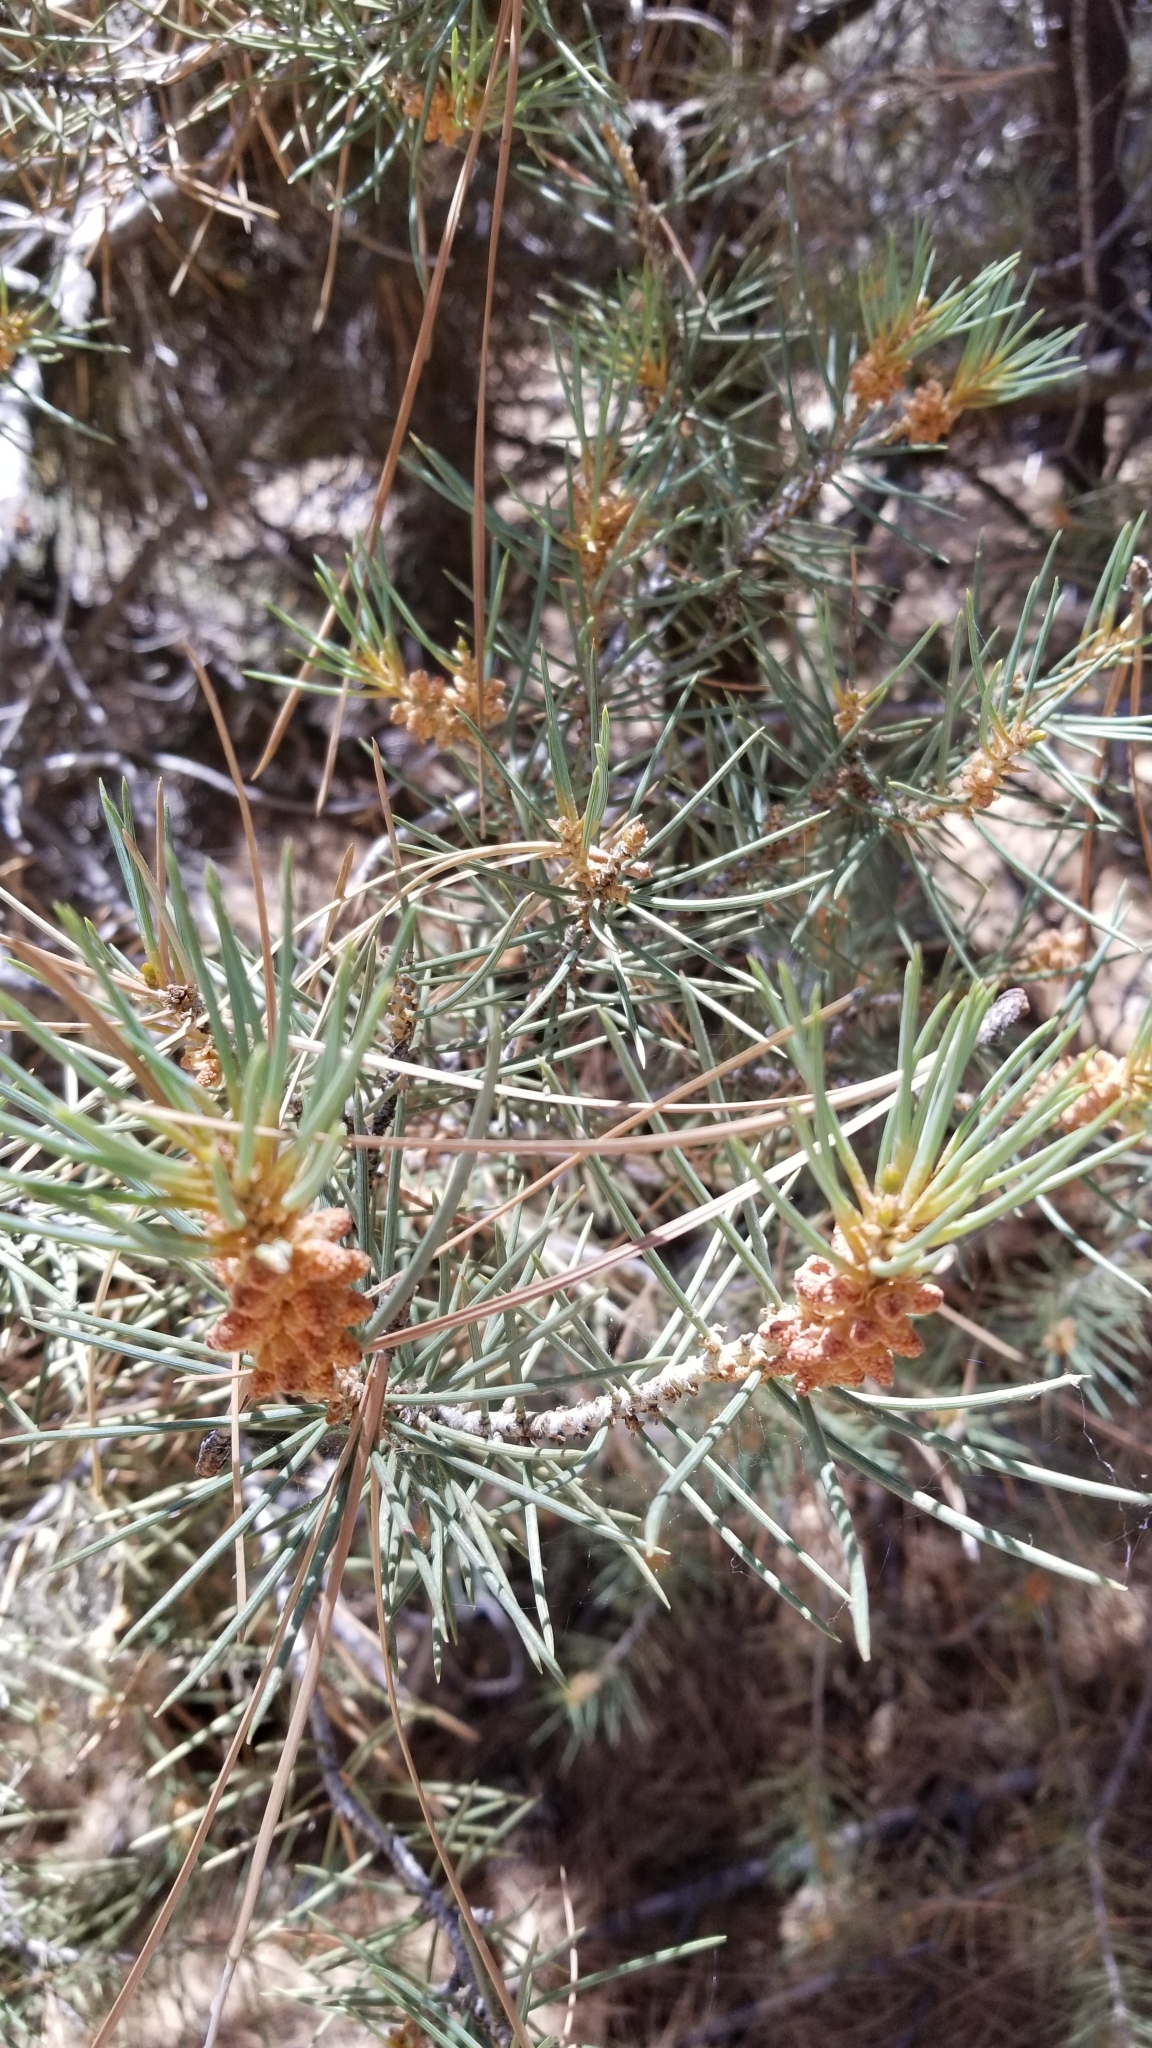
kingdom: Plantae
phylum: Tracheophyta
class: Pinopsida
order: Pinales
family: Pinaceae
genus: Pinus
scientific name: Pinus monophylla
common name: One-leaved nut pine
